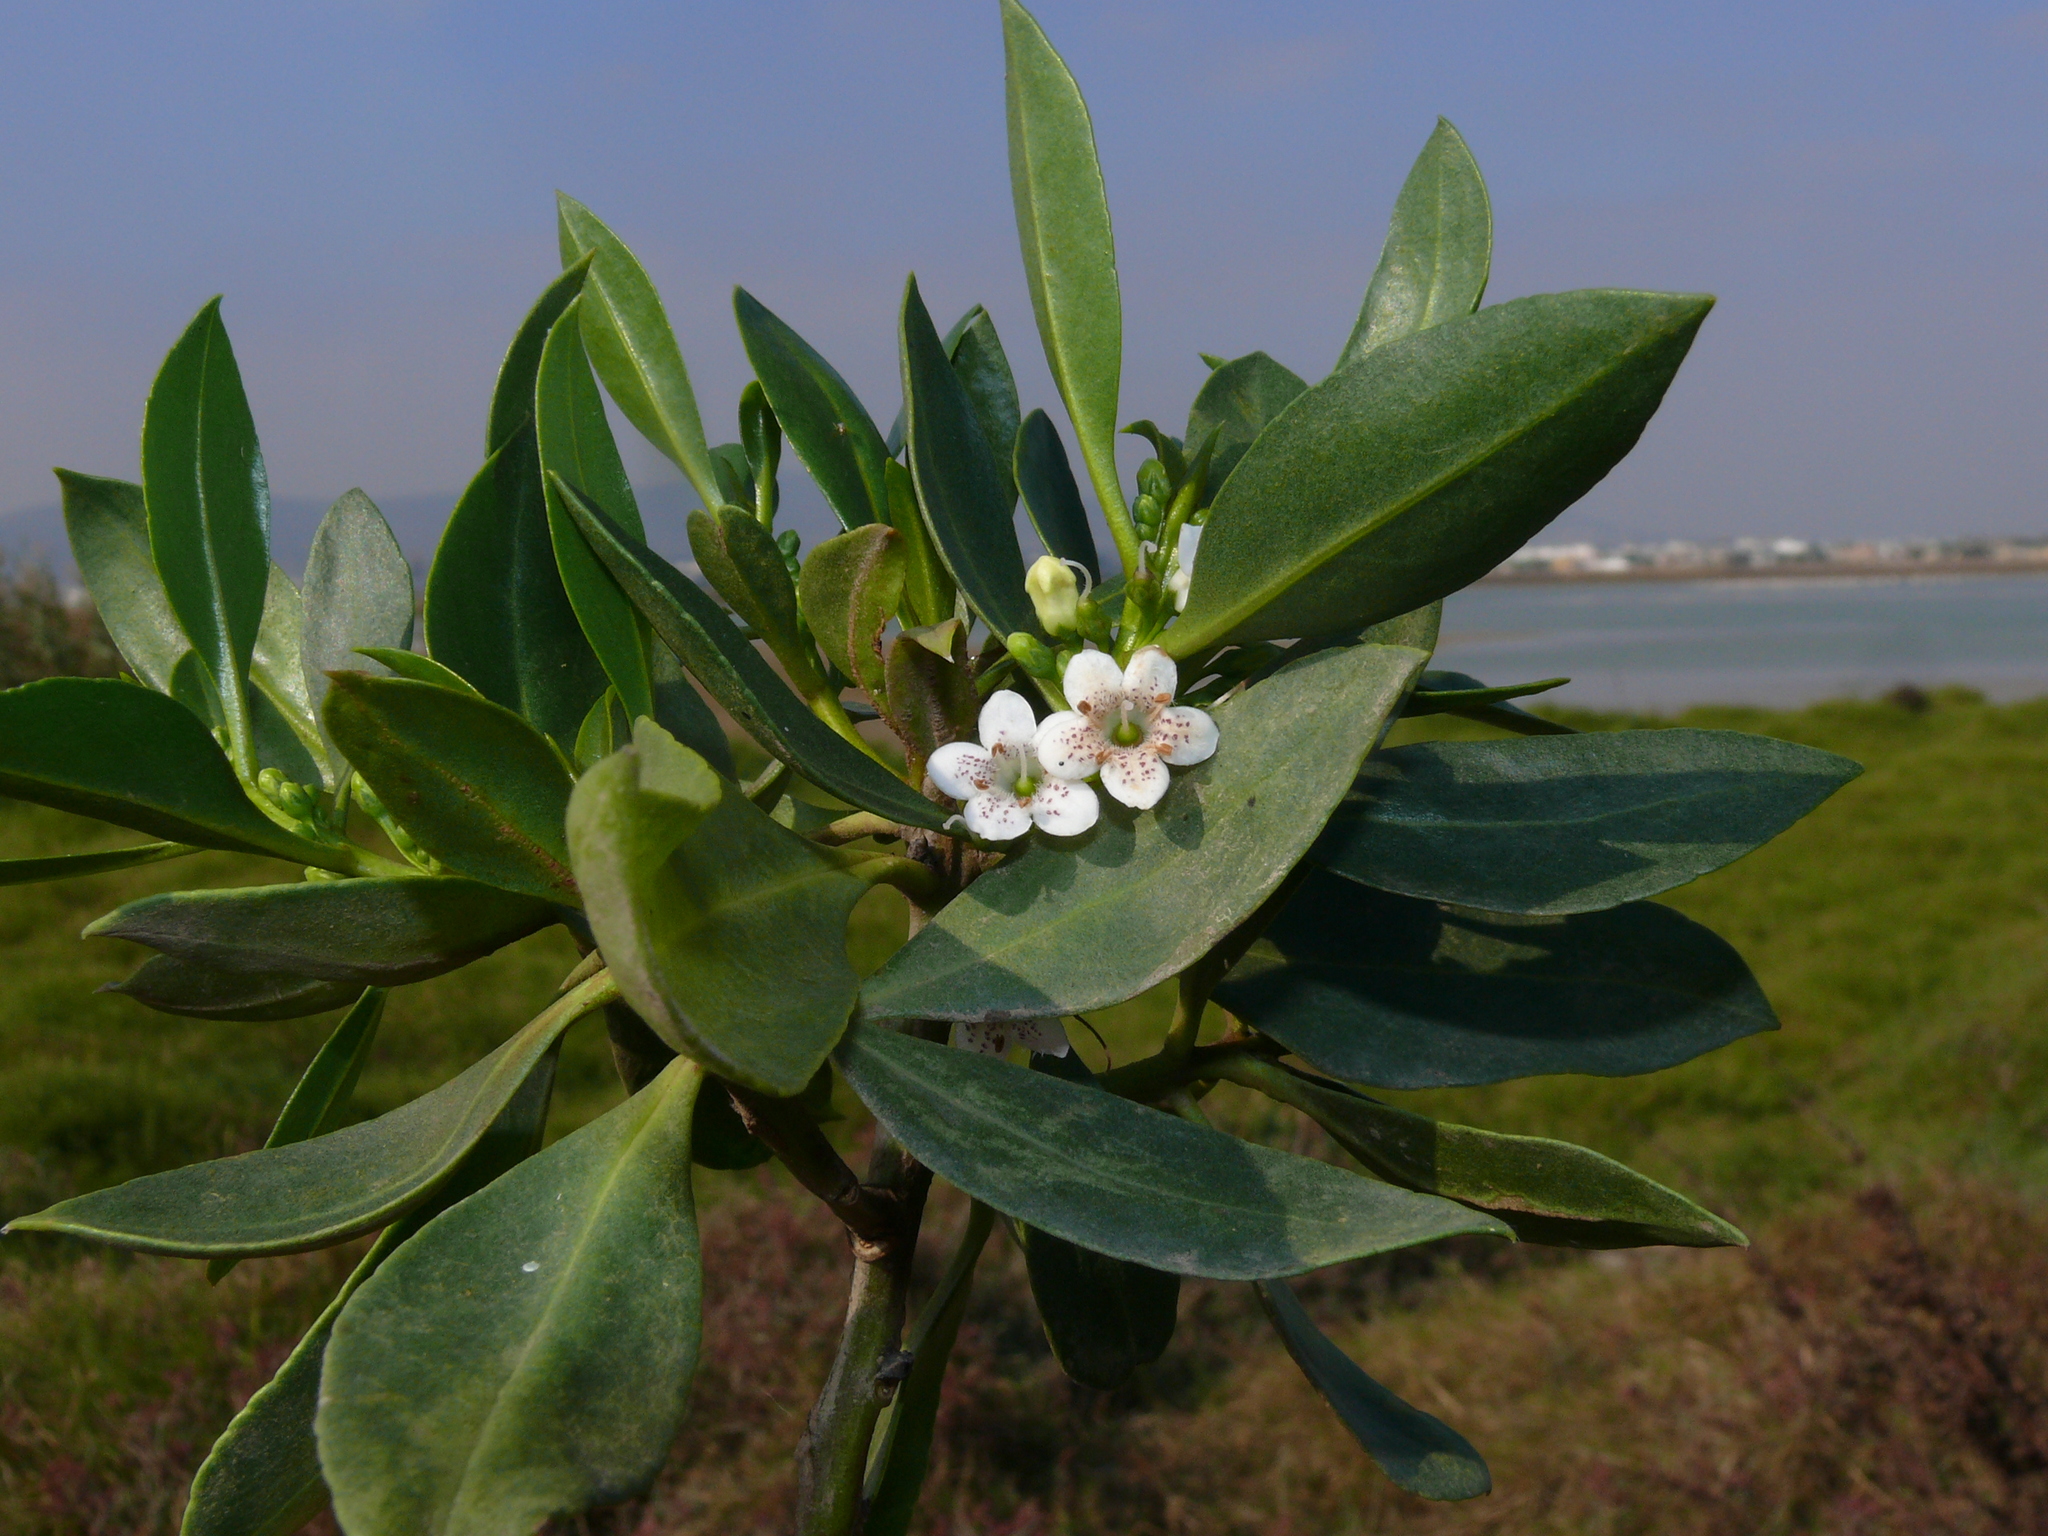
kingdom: Plantae
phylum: Tracheophyta
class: Magnoliopsida
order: Lamiales
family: Scrophulariaceae
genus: Myoporum
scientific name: Myoporum montanum
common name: Waterbush
